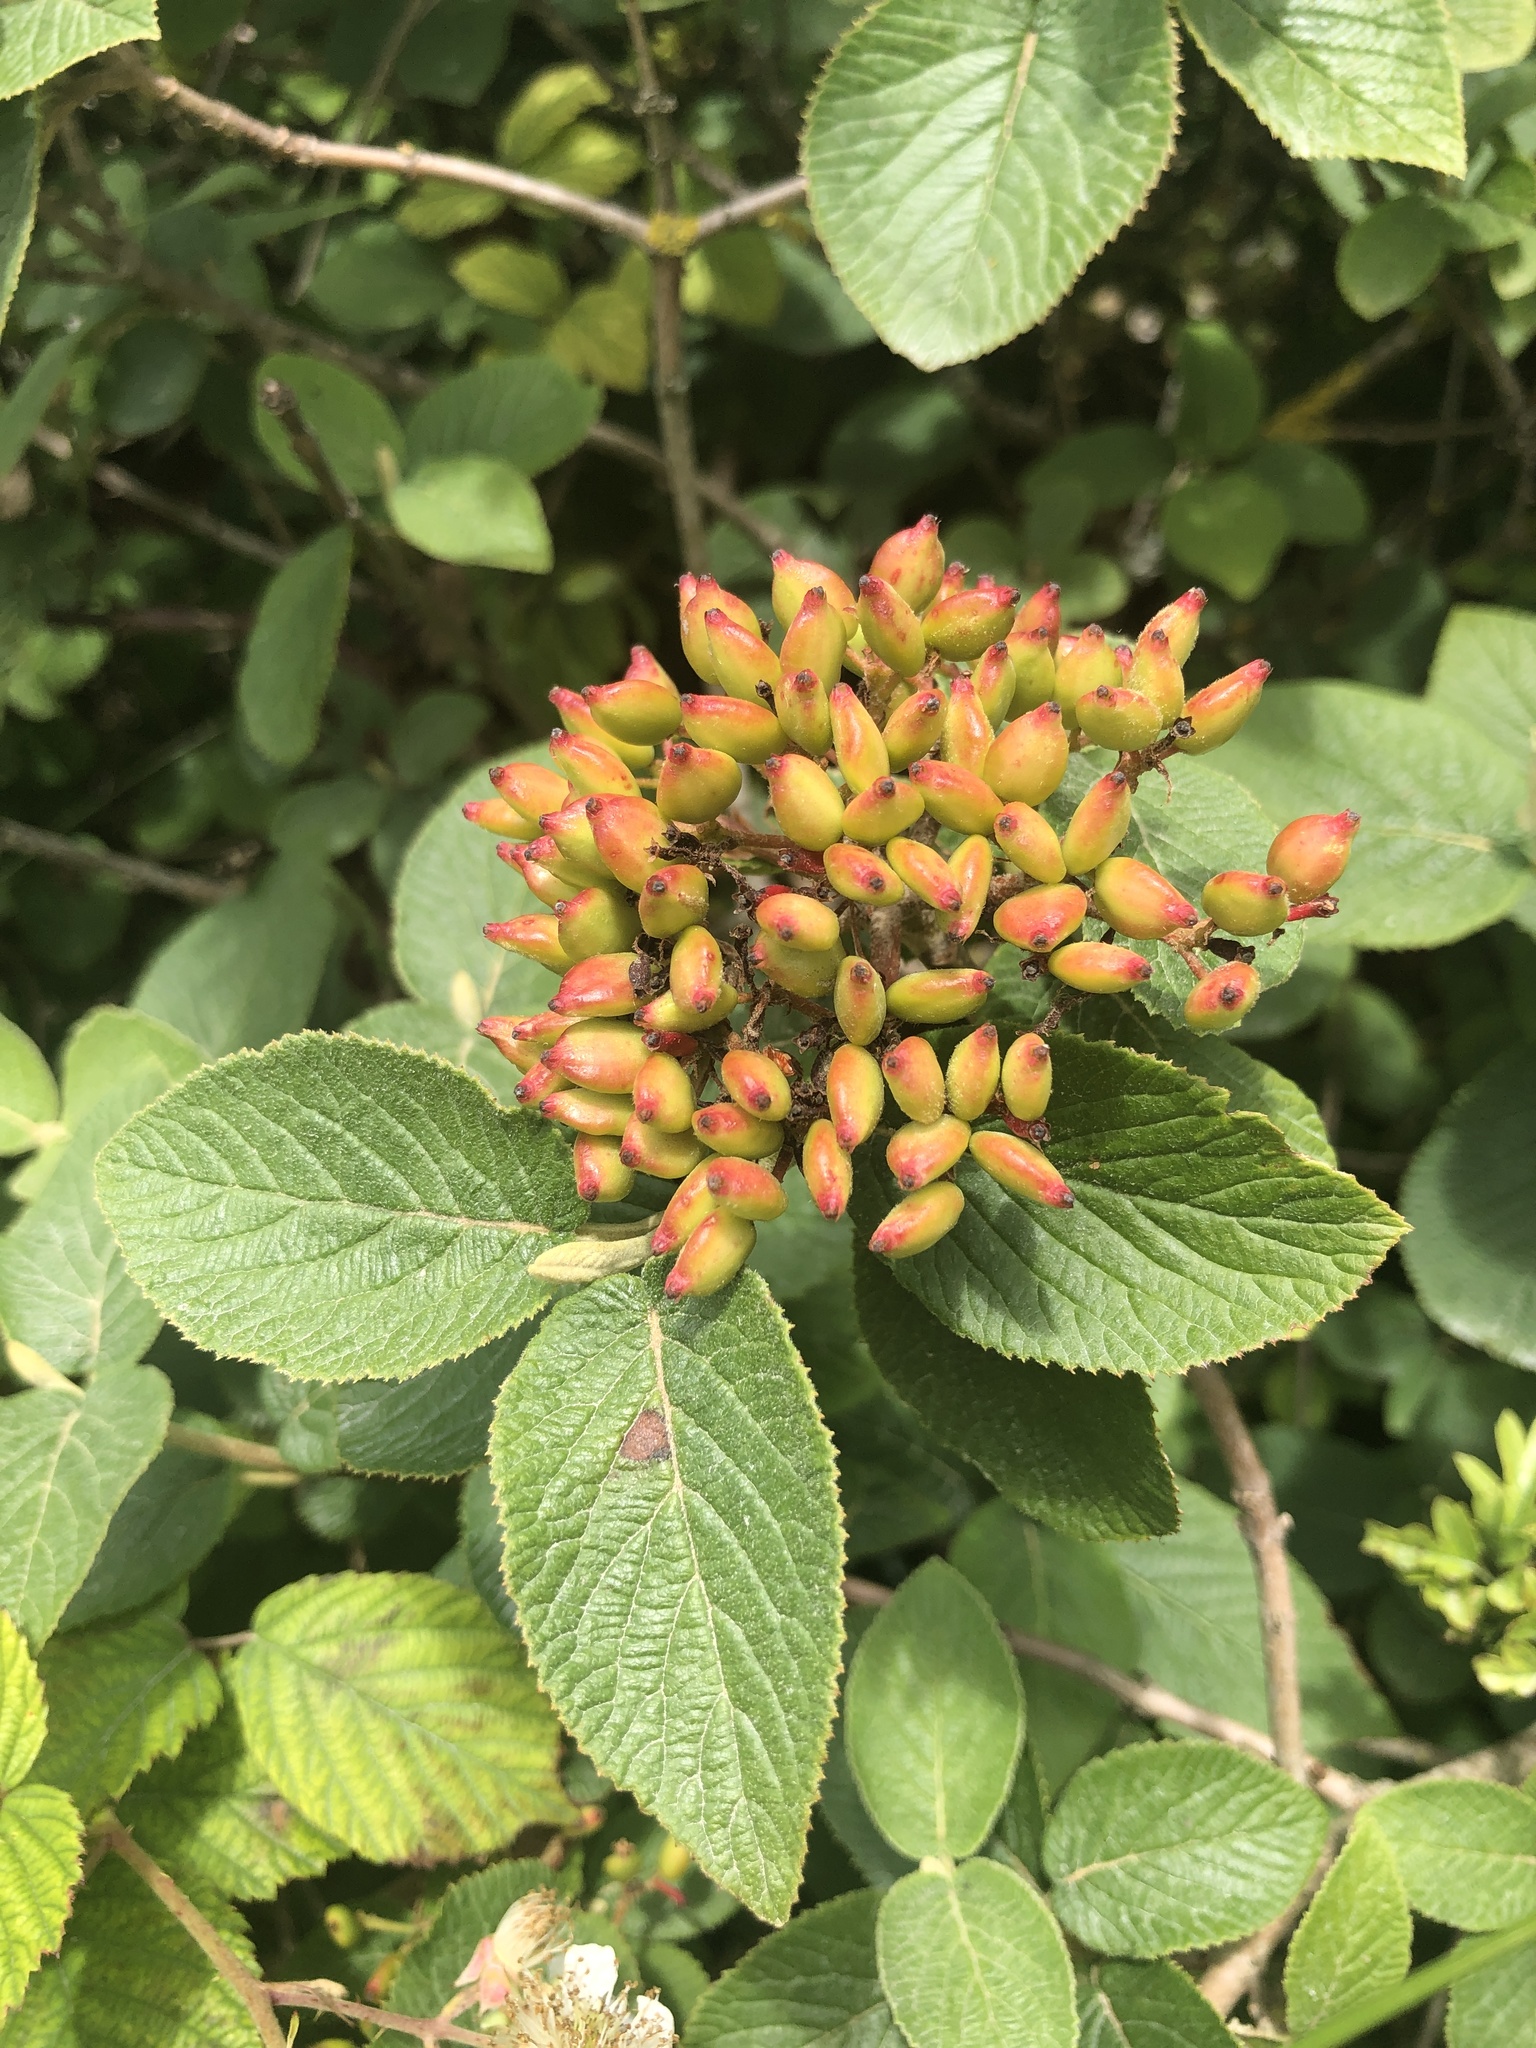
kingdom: Plantae
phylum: Tracheophyta
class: Magnoliopsida
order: Dipsacales
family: Viburnaceae
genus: Viburnum
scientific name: Viburnum lantana
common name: Wayfaring tree
